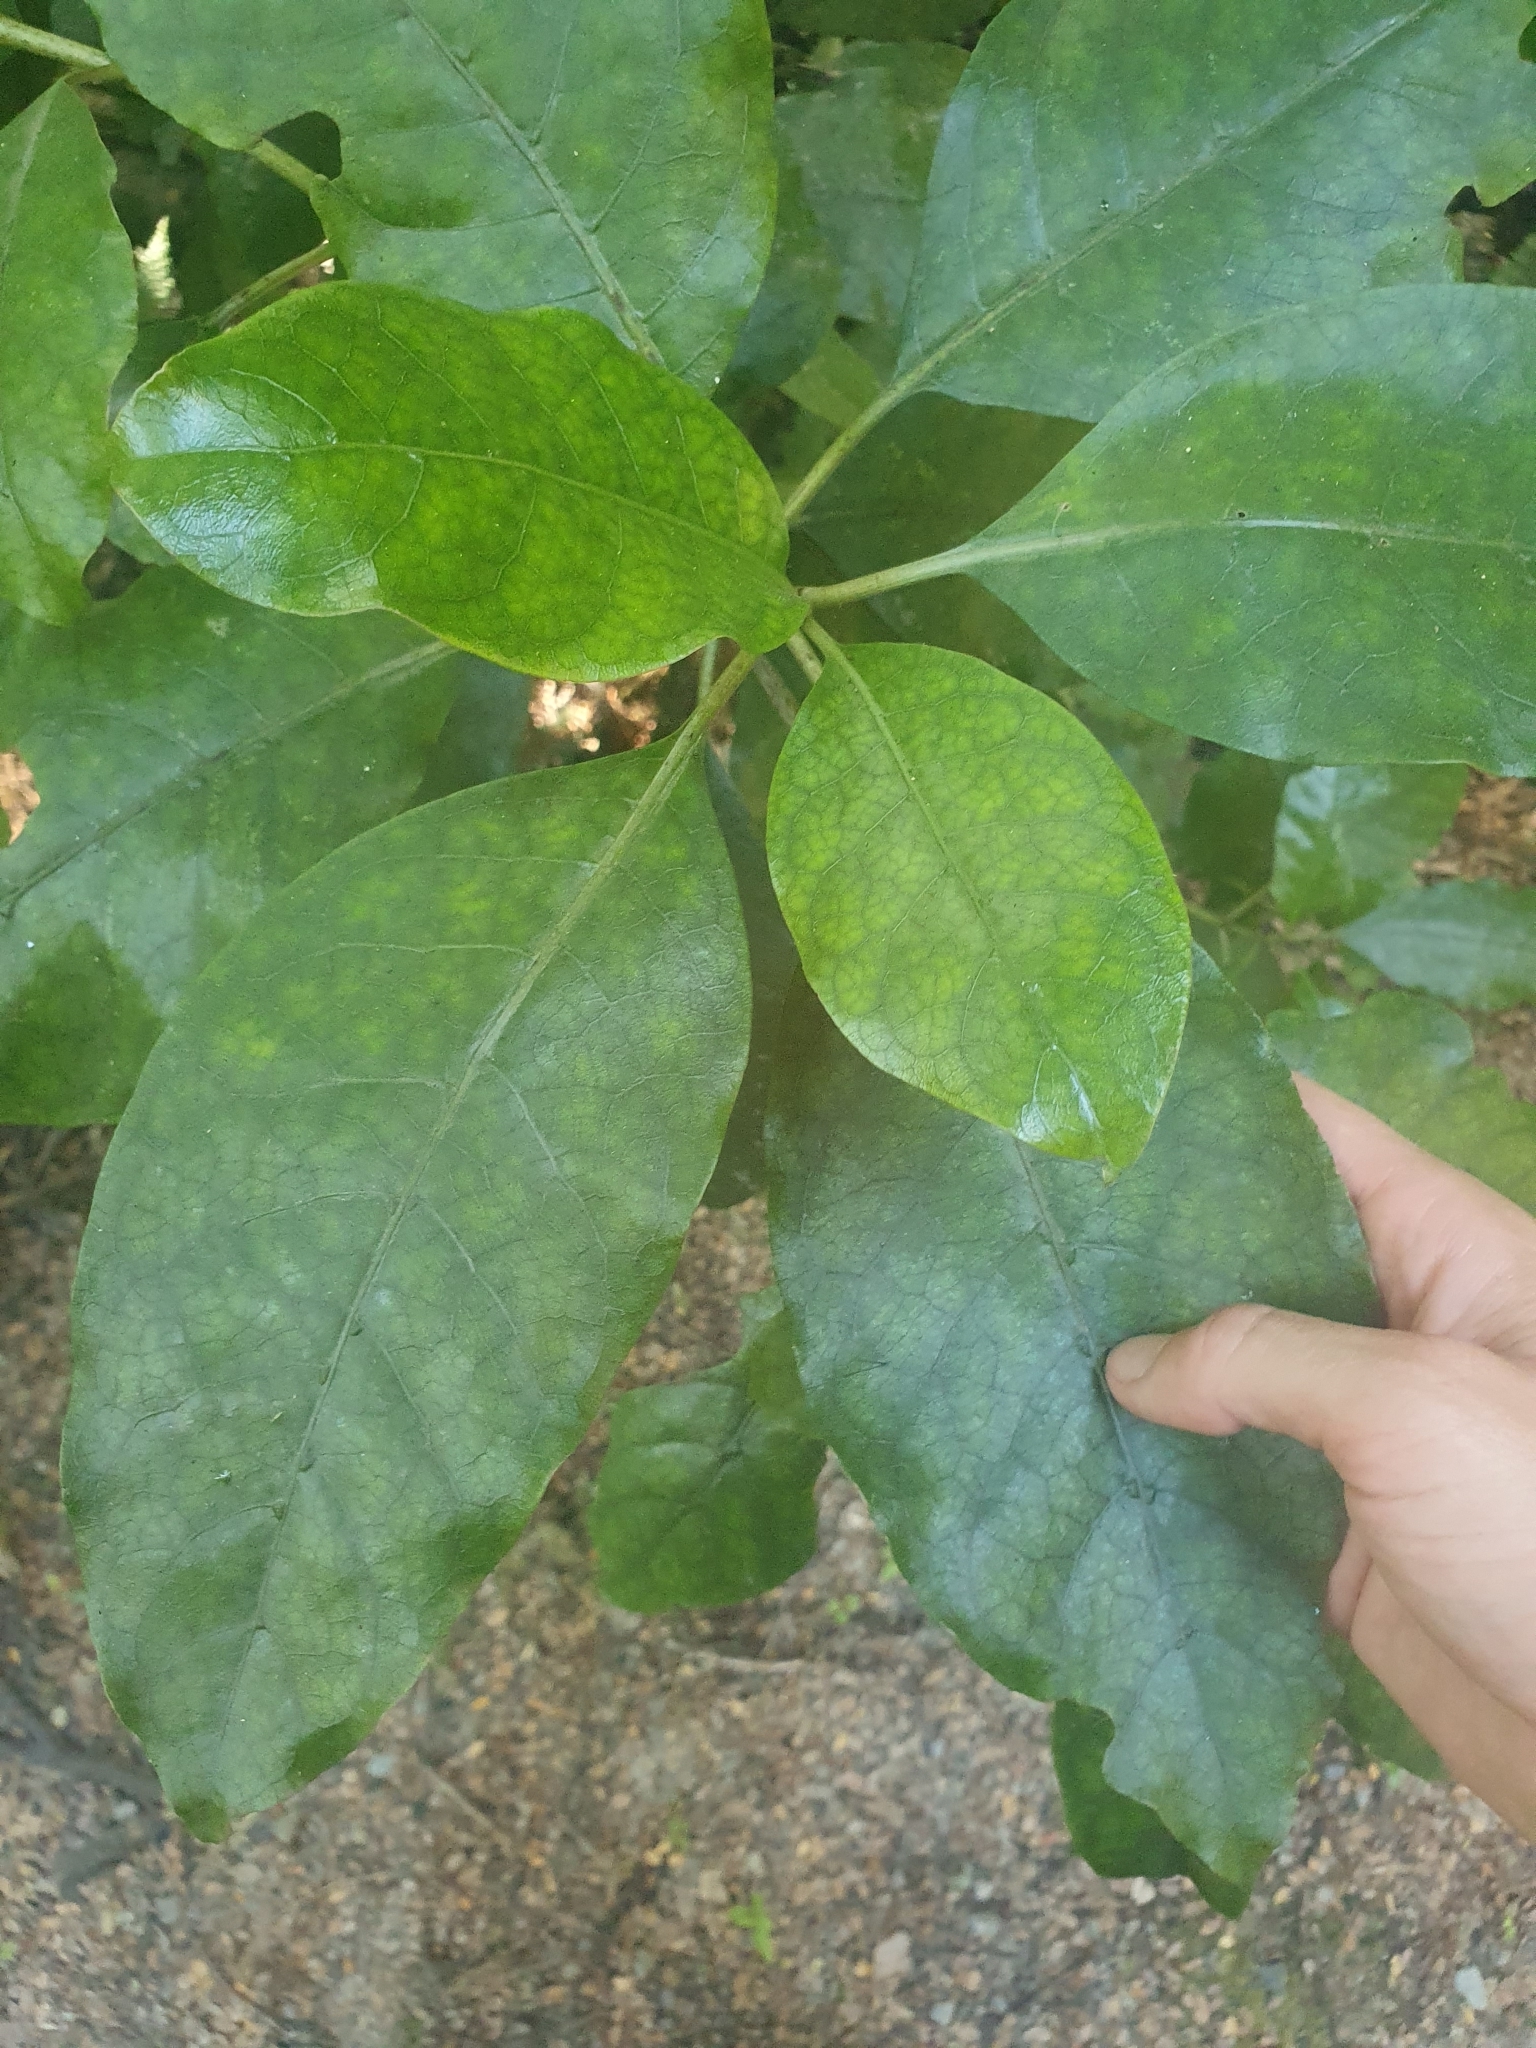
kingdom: Plantae
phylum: Tracheophyta
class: Magnoliopsida
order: Gentianales
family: Rubiaceae
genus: Coprosma
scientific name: Coprosma autumnalis
